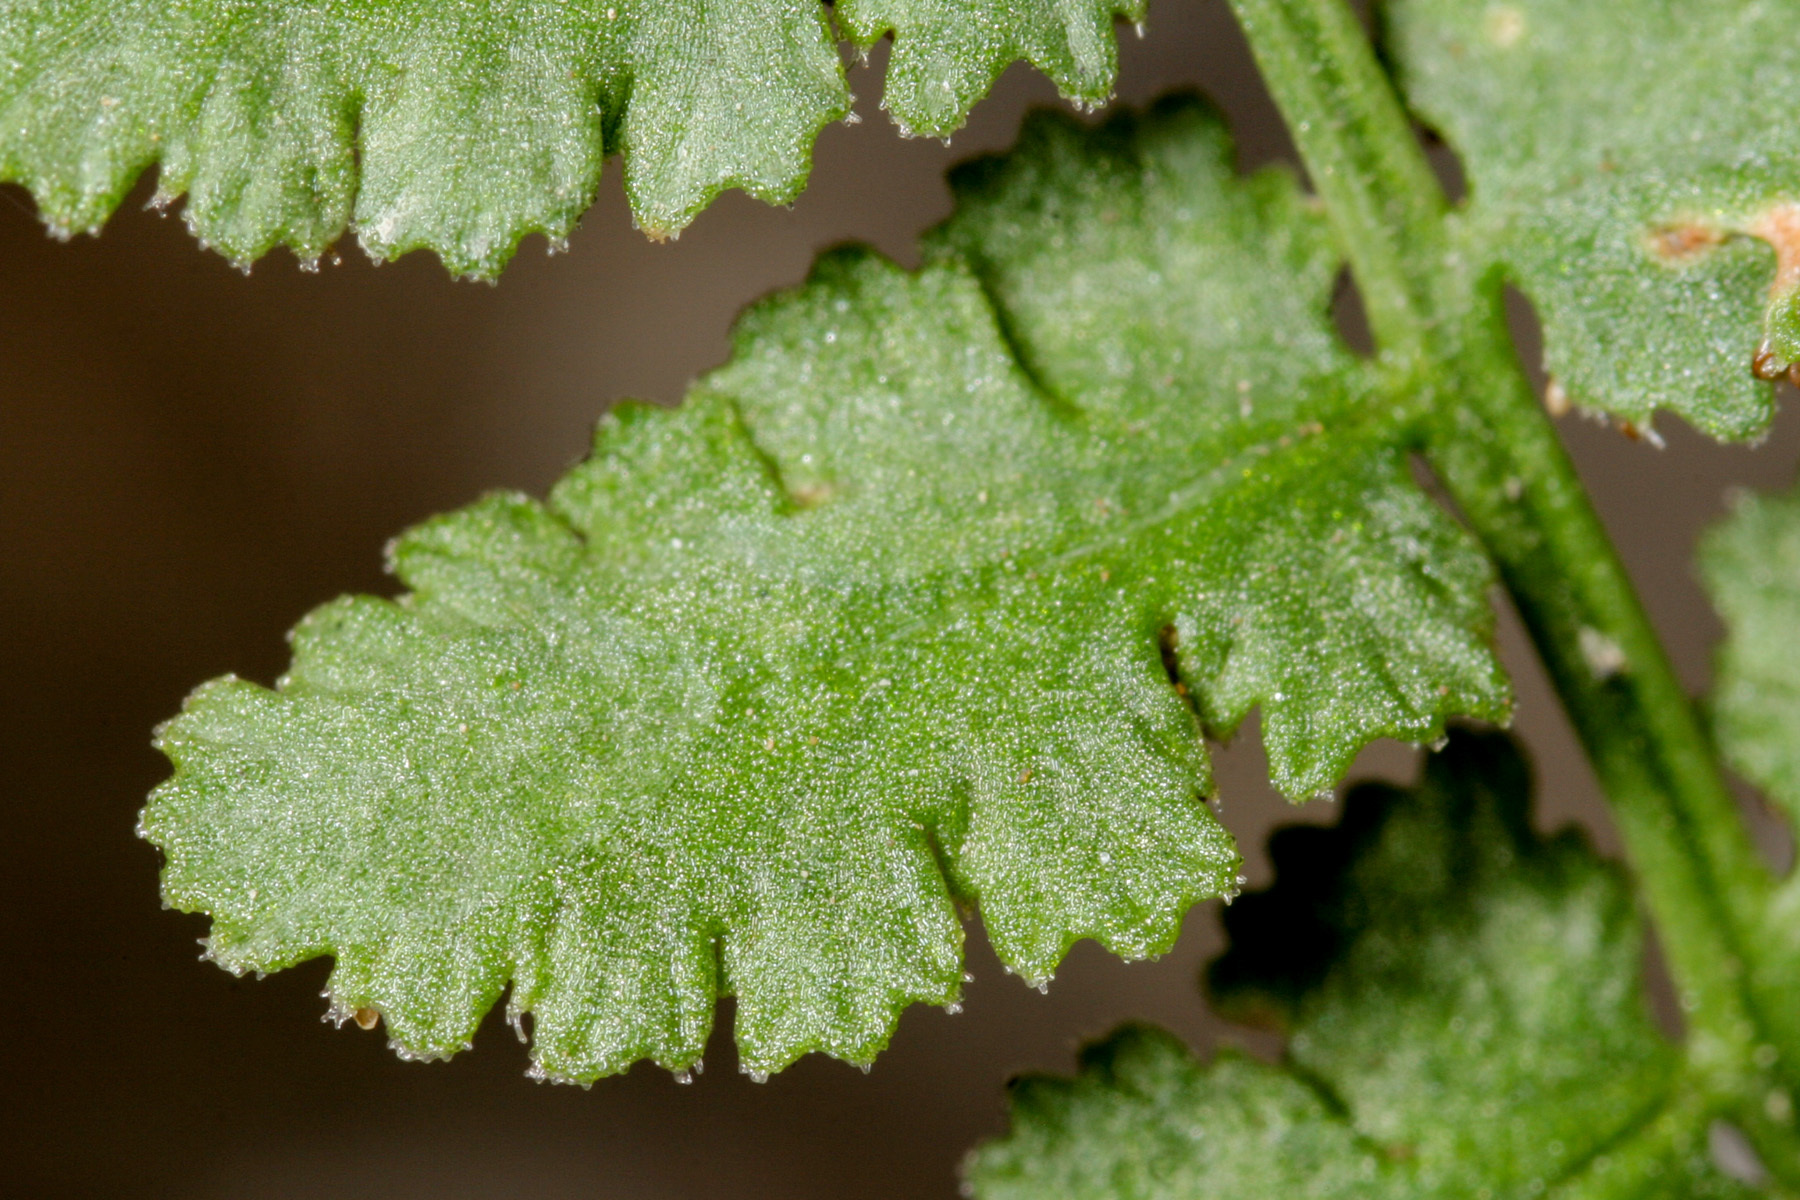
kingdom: Plantae
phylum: Tracheophyta
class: Polypodiopsida
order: Polypodiales
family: Woodsiaceae
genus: Physematium
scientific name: Physematium neomexicanum
